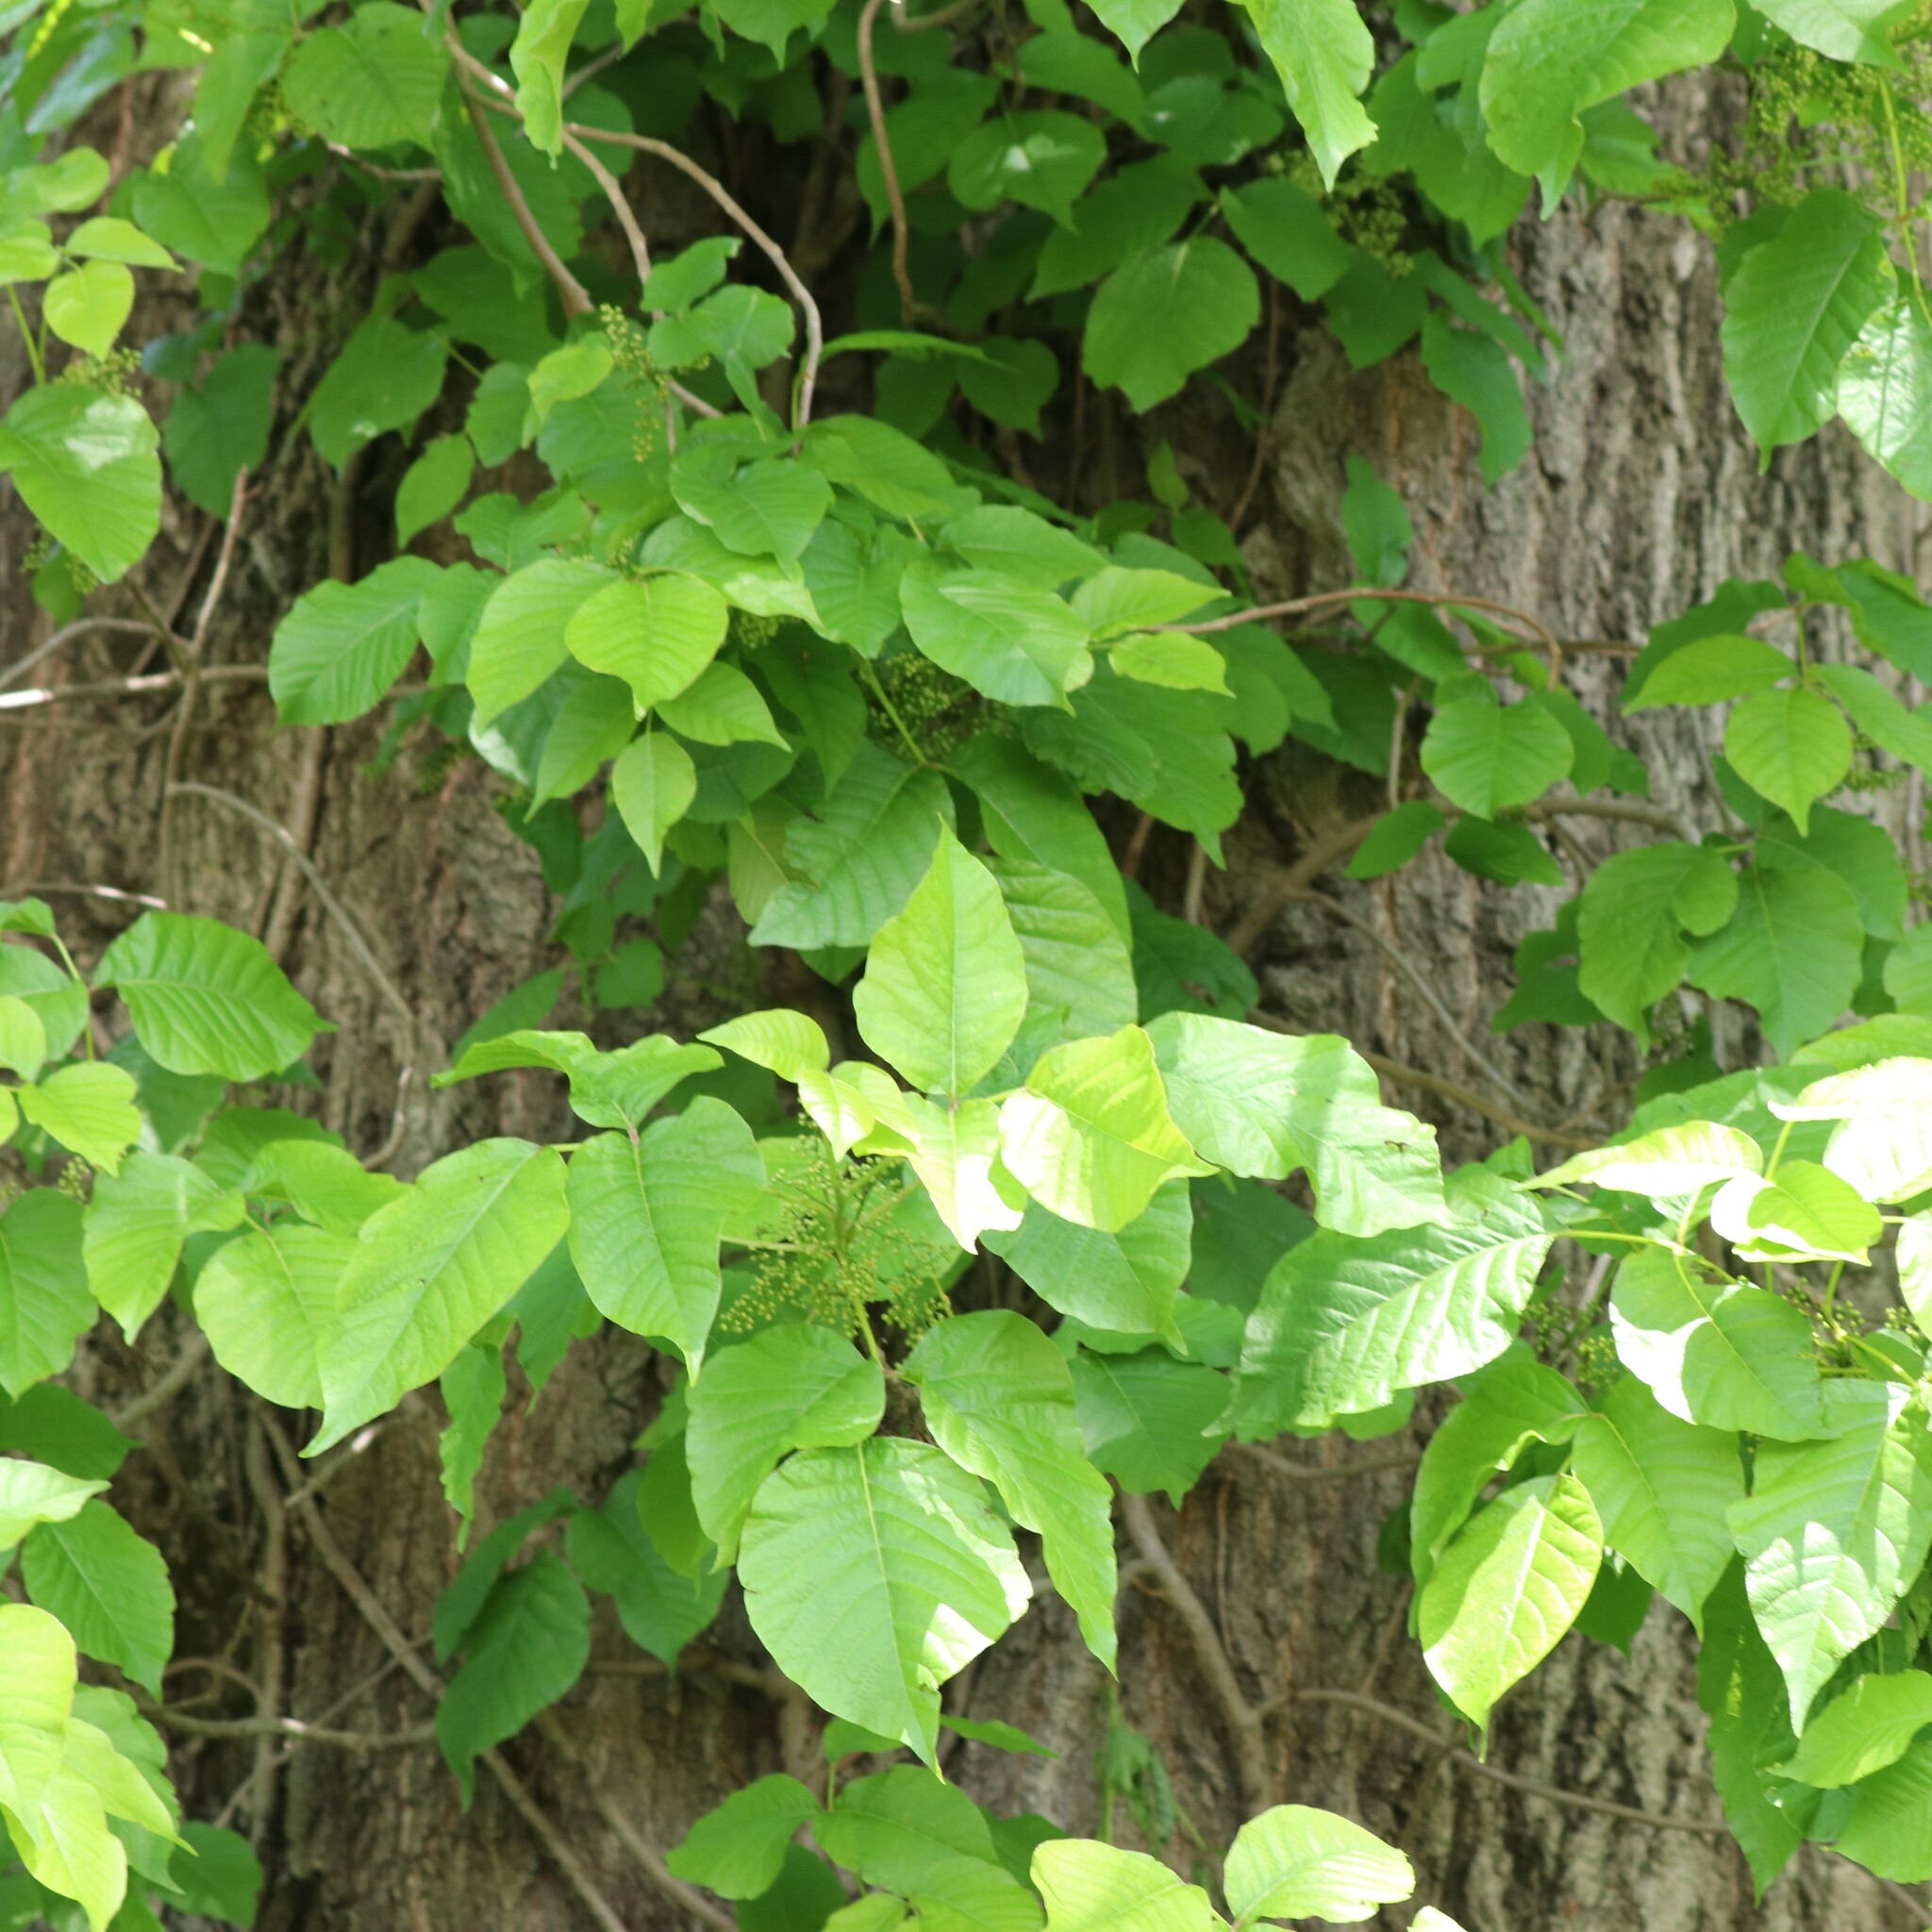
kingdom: Plantae
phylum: Tracheophyta
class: Magnoliopsida
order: Sapindales
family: Anacardiaceae
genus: Toxicodendron
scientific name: Toxicodendron radicans
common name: Poison ivy
